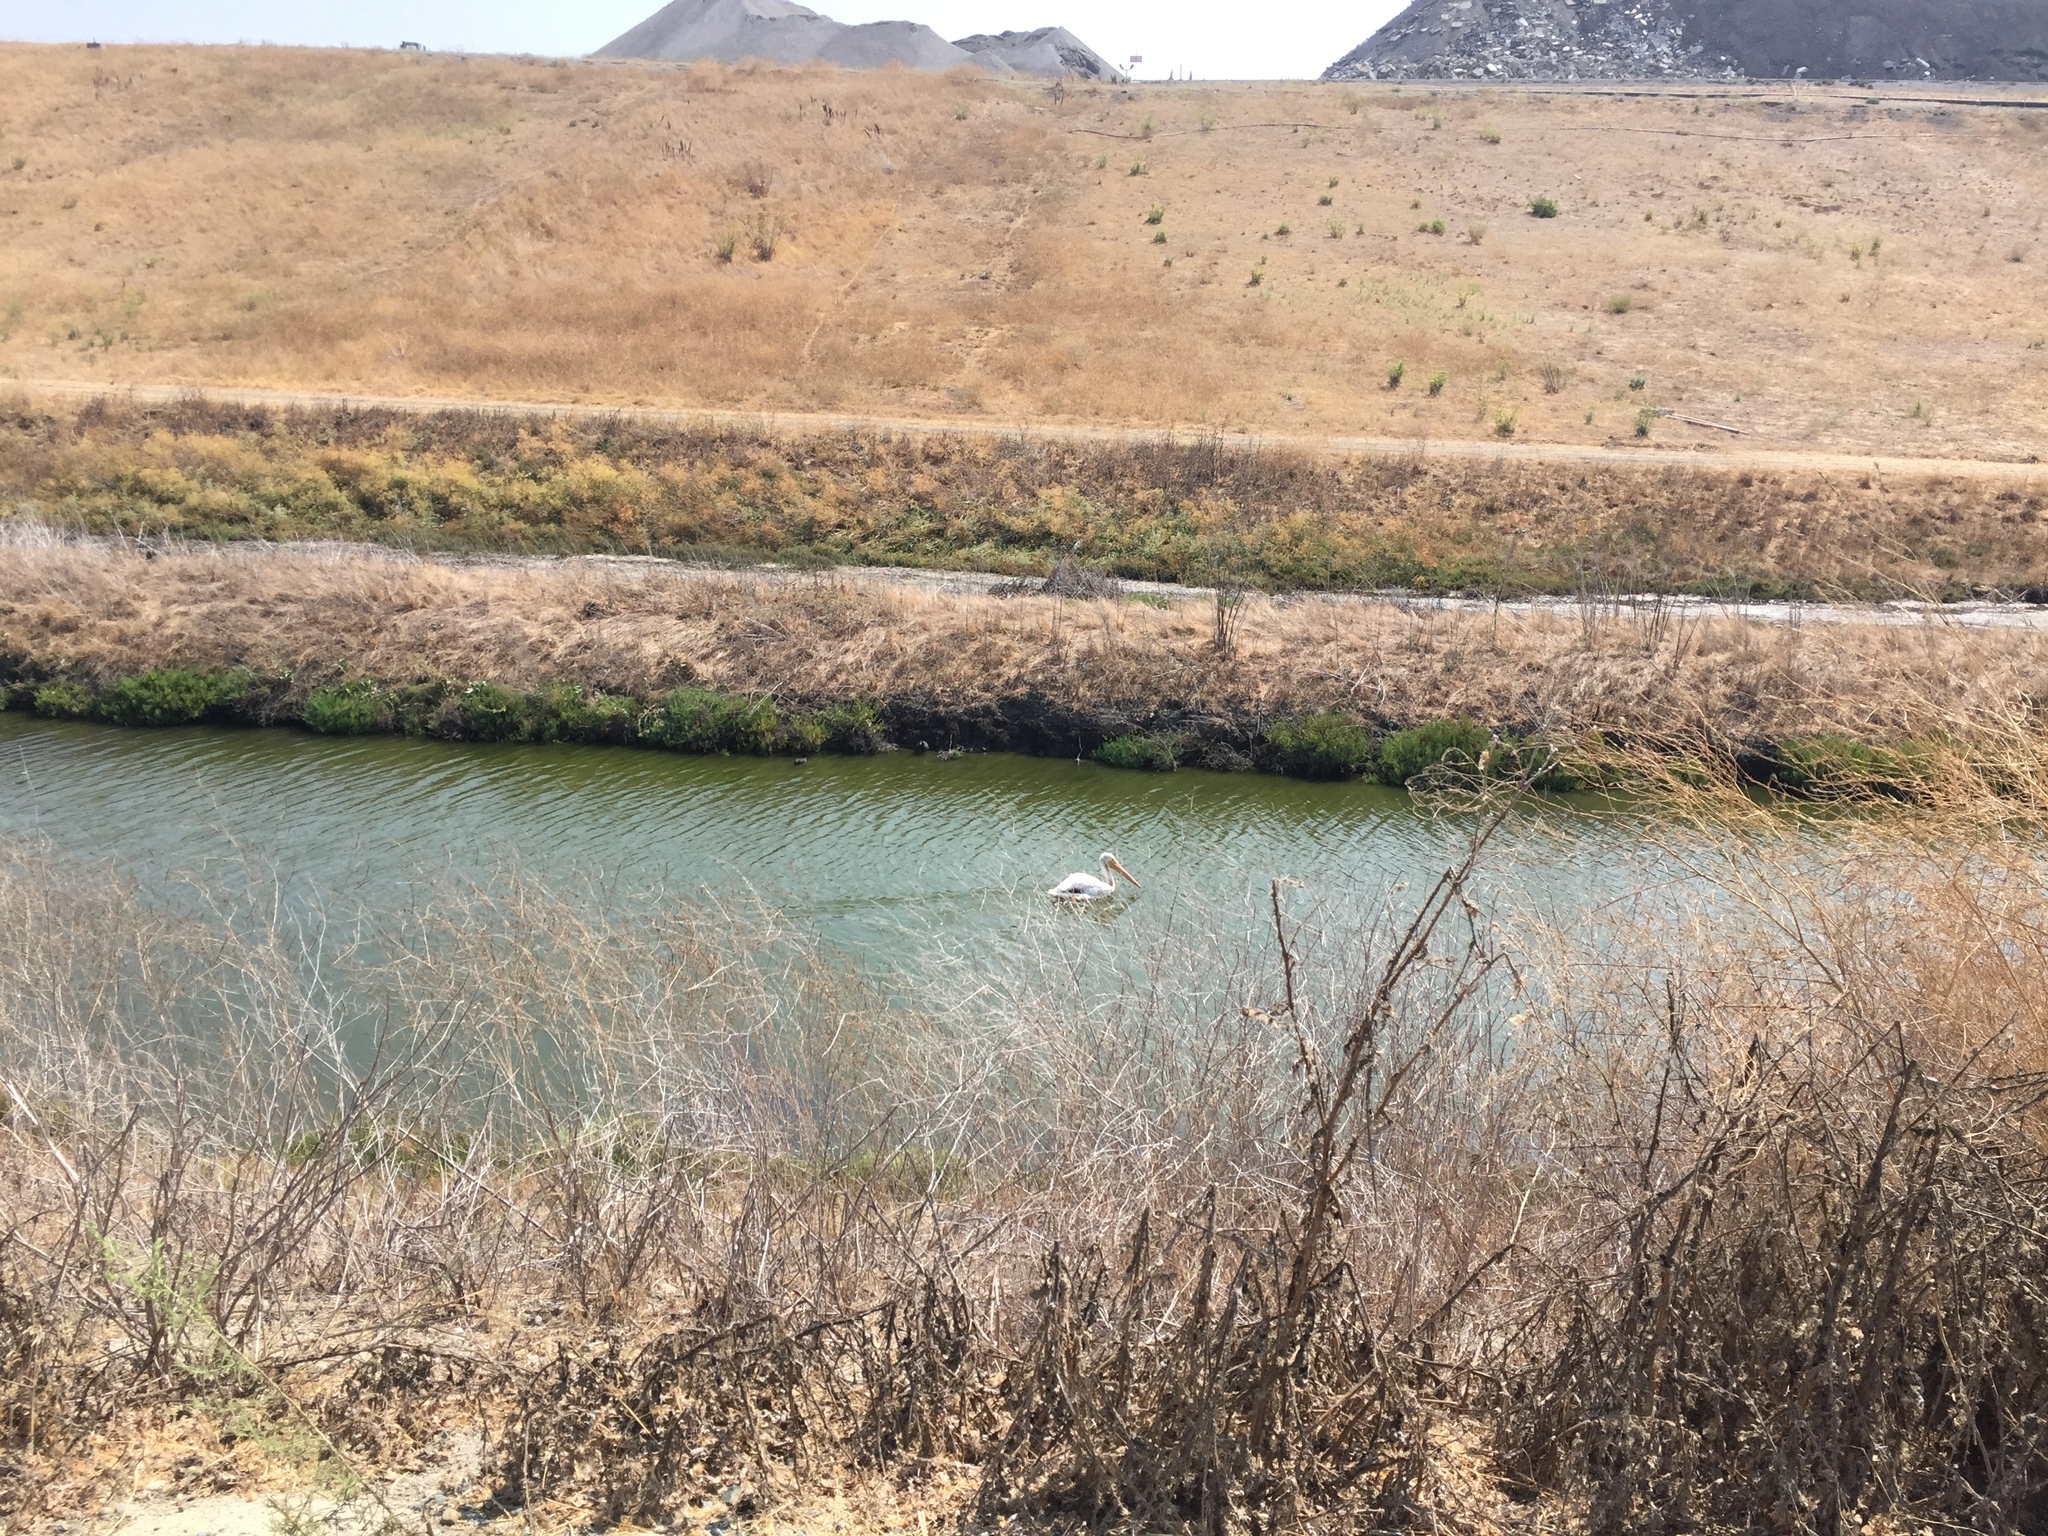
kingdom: Animalia
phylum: Chordata
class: Aves
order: Pelecaniformes
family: Pelecanidae
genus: Pelecanus
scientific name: Pelecanus erythrorhynchos
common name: American white pelican
